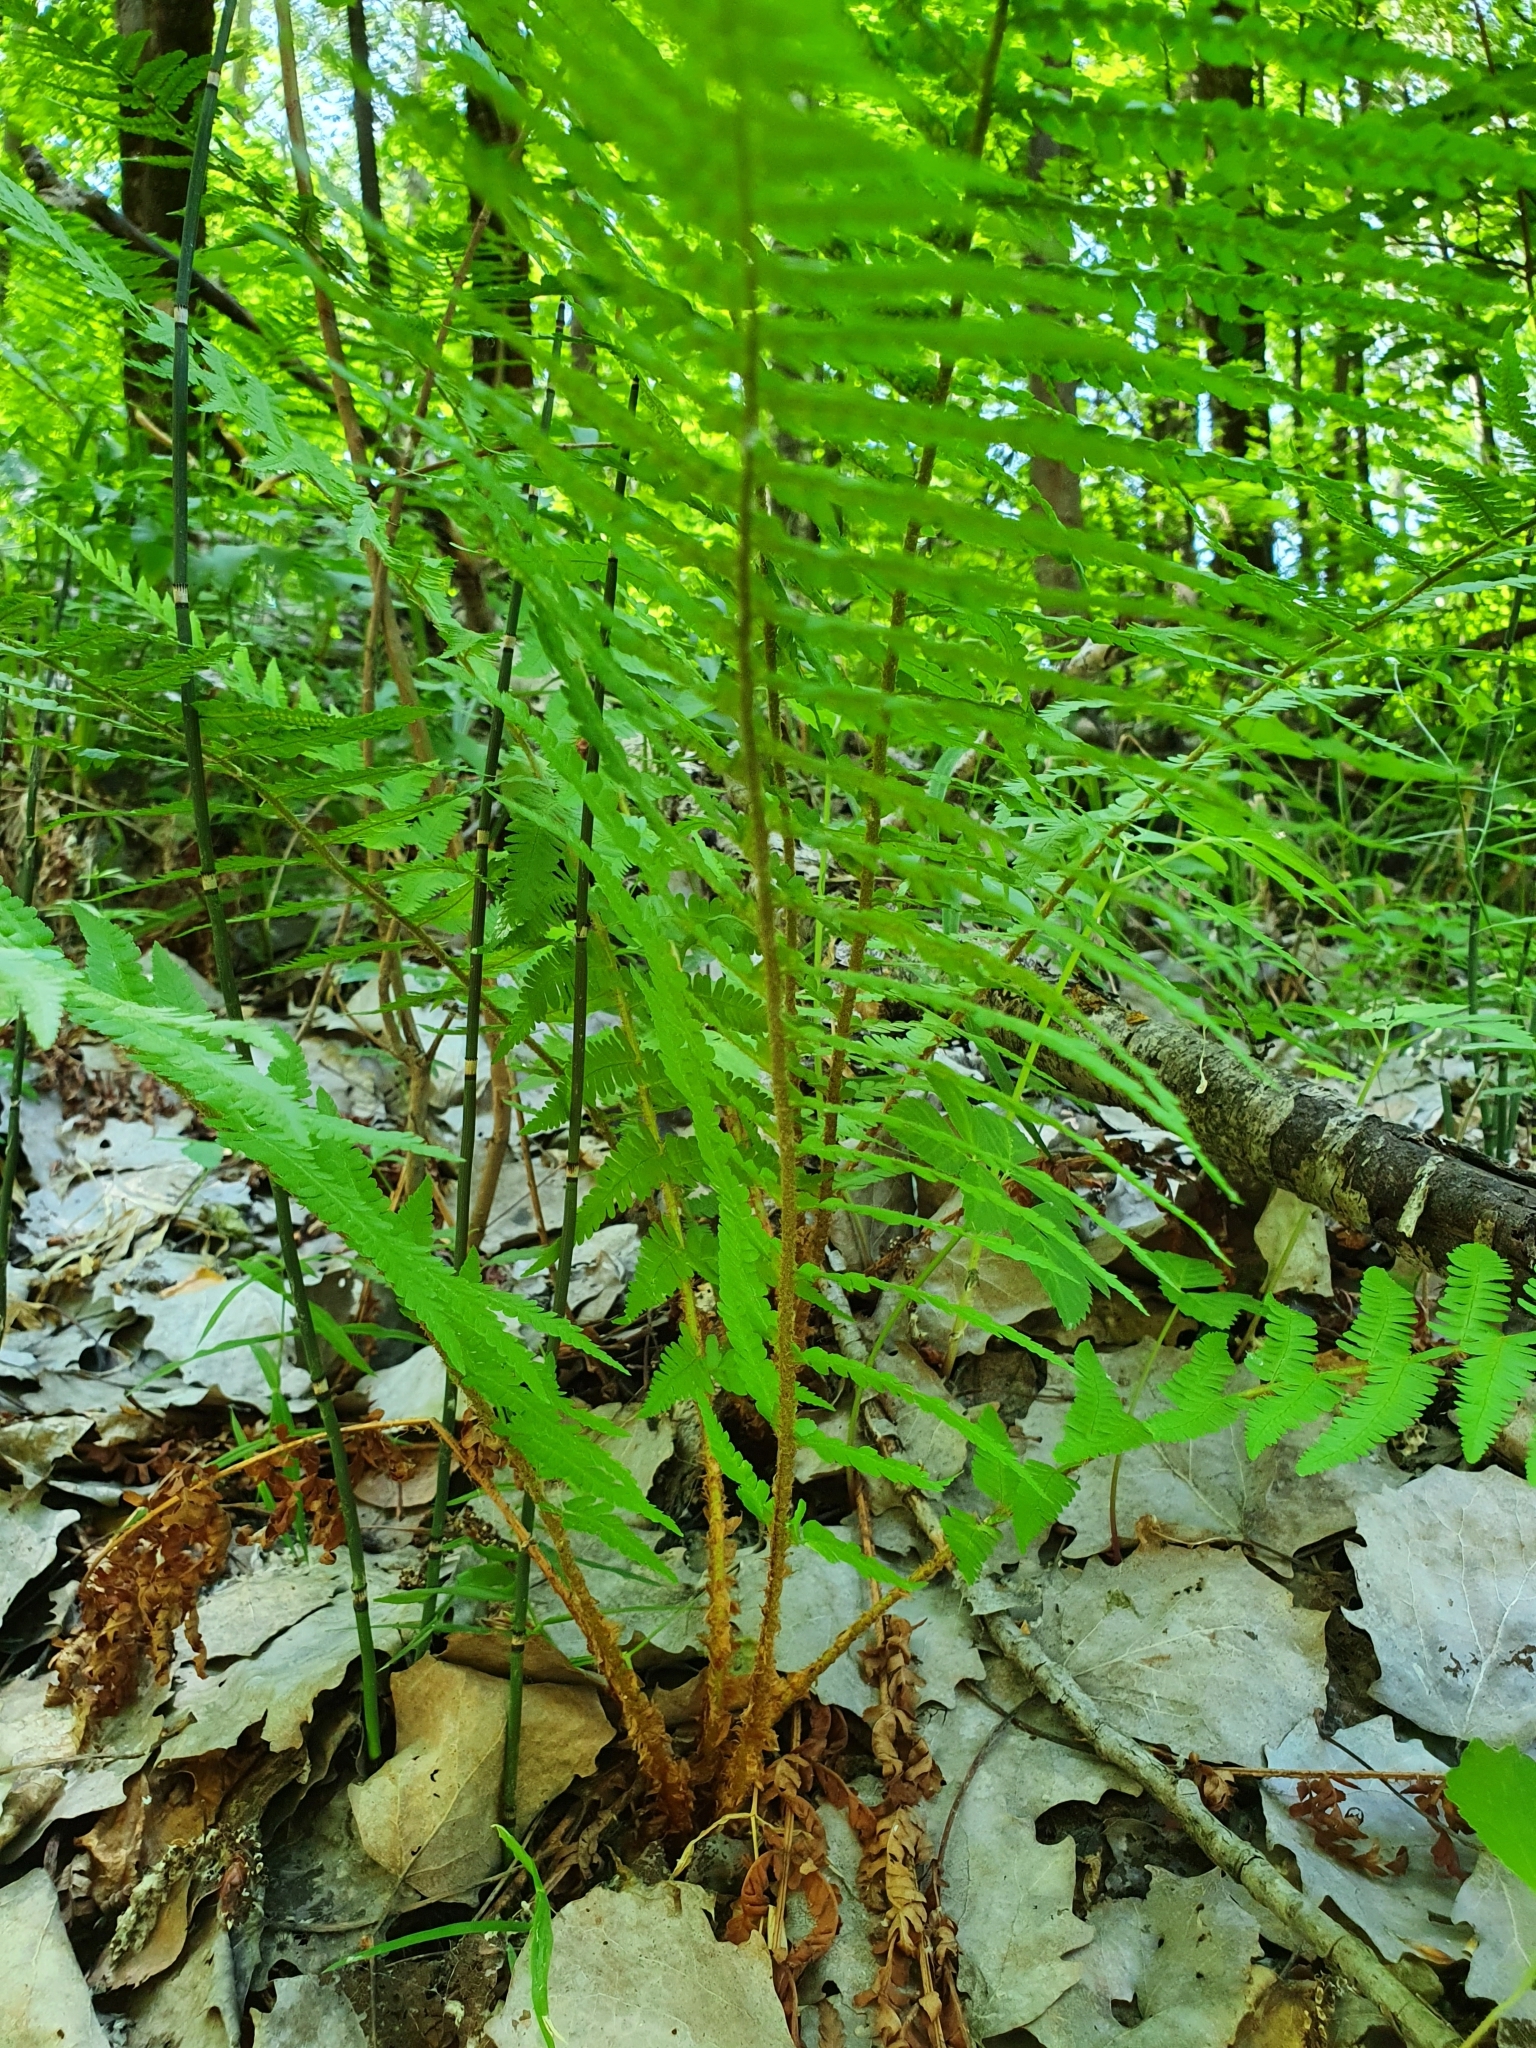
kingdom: Plantae
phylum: Tracheophyta
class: Polypodiopsida
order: Polypodiales
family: Dryopteridaceae
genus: Dryopteris
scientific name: Dryopteris filix-mas
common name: Male fern
